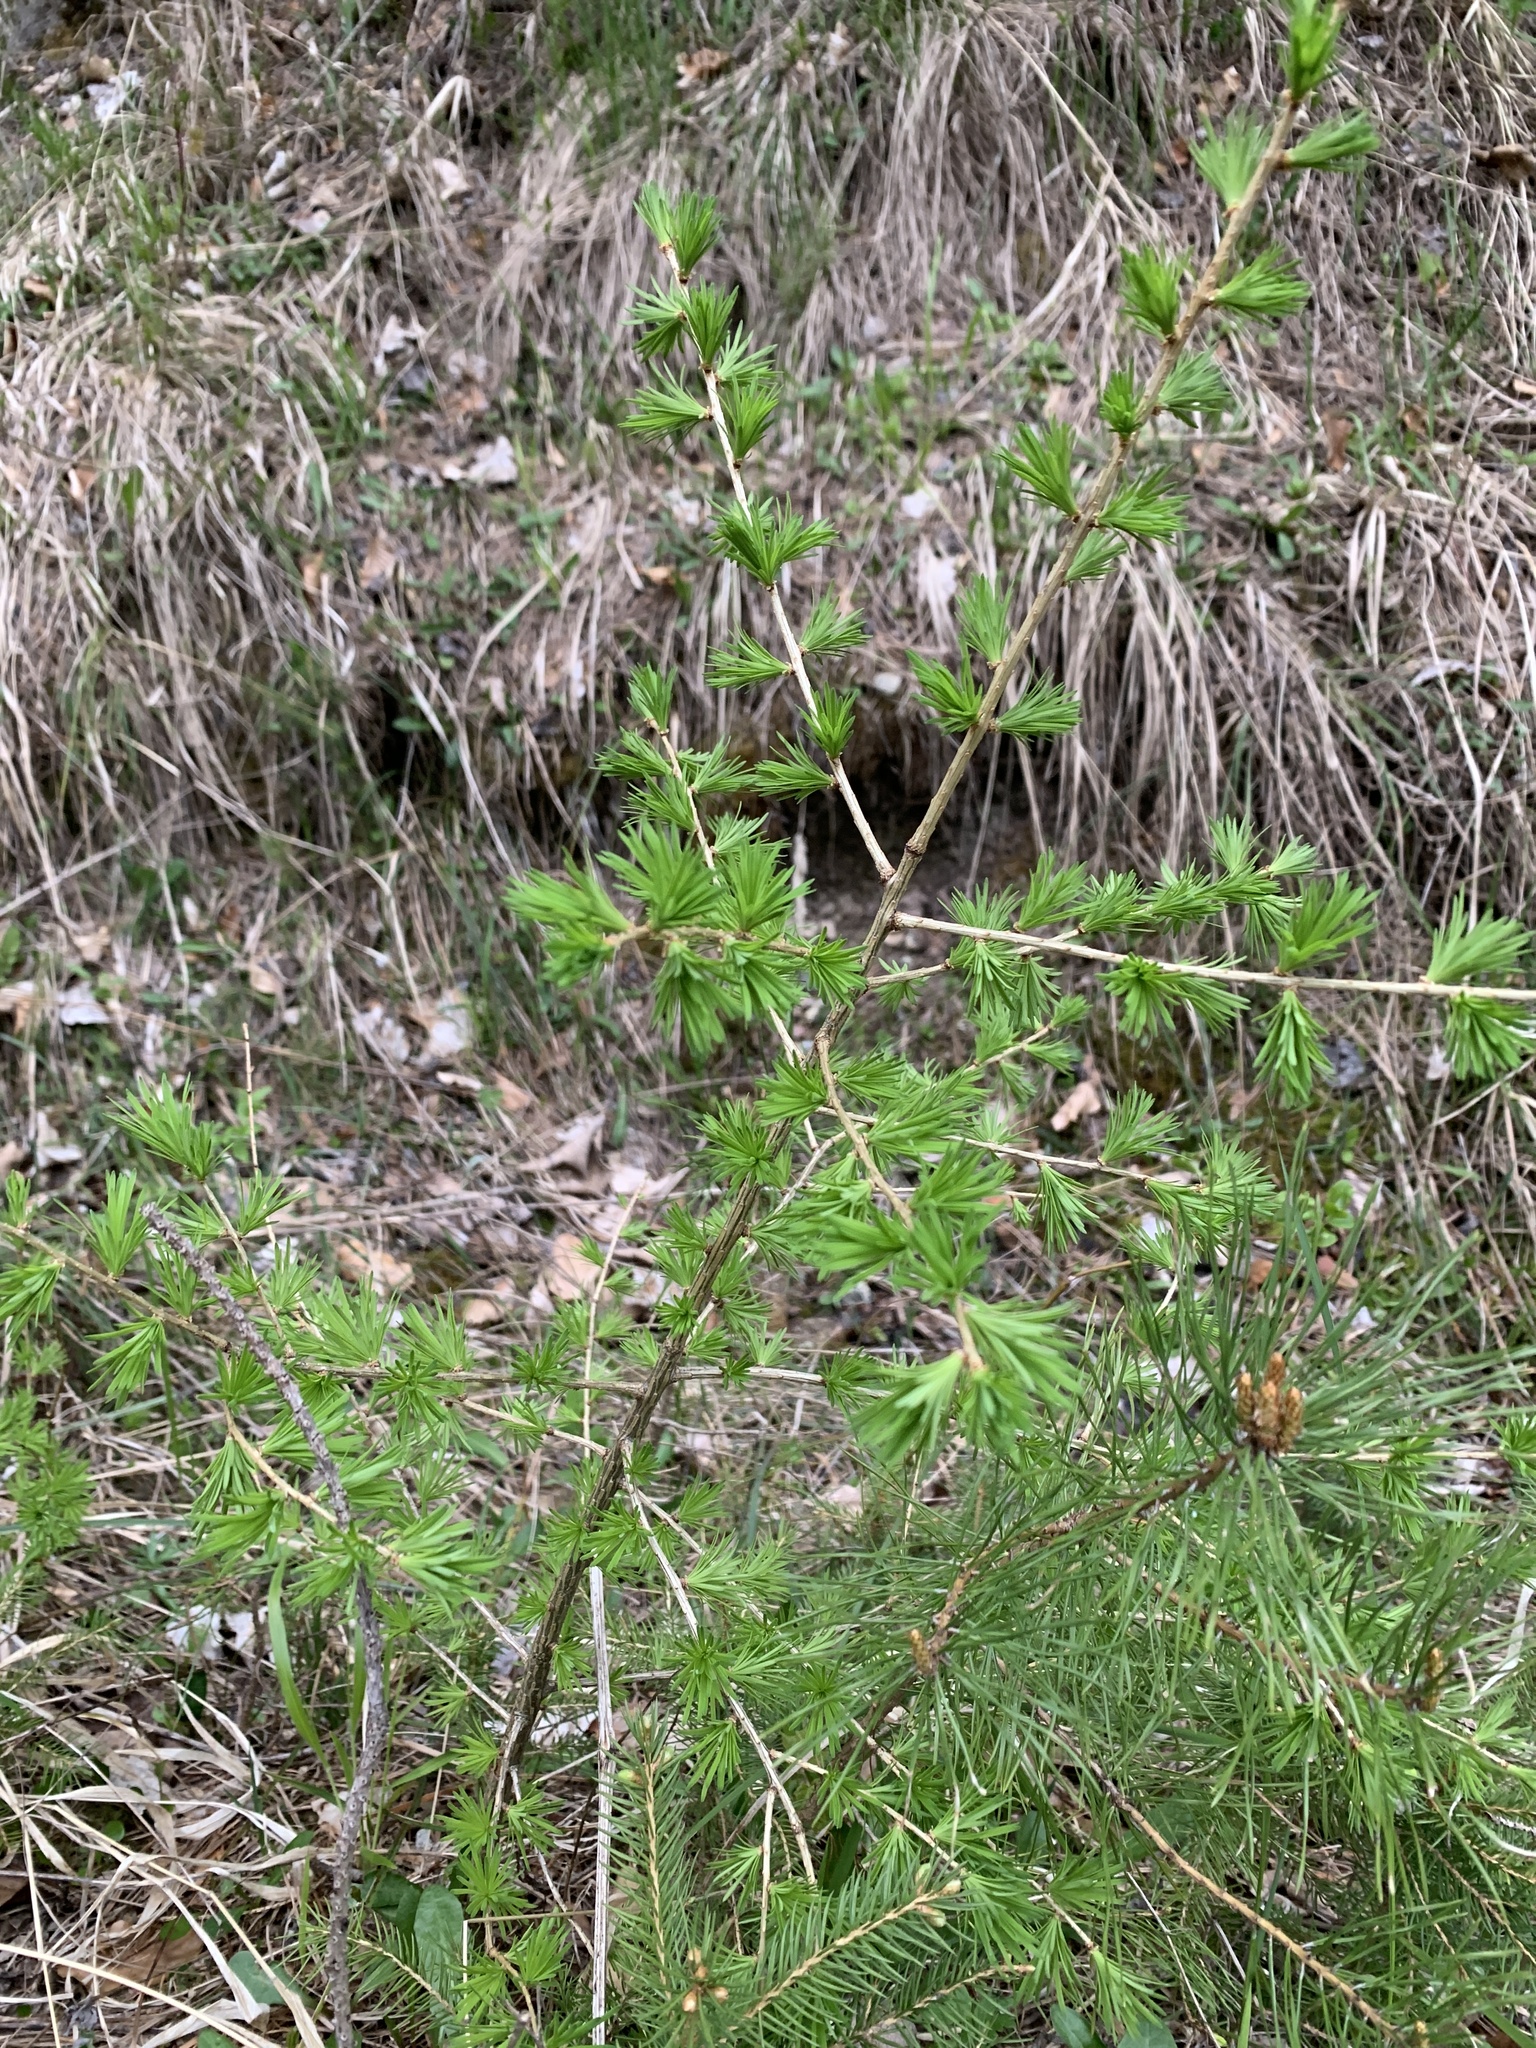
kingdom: Plantae
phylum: Tracheophyta
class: Pinopsida
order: Pinales
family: Pinaceae
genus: Larix
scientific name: Larix decidua
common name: European larch
